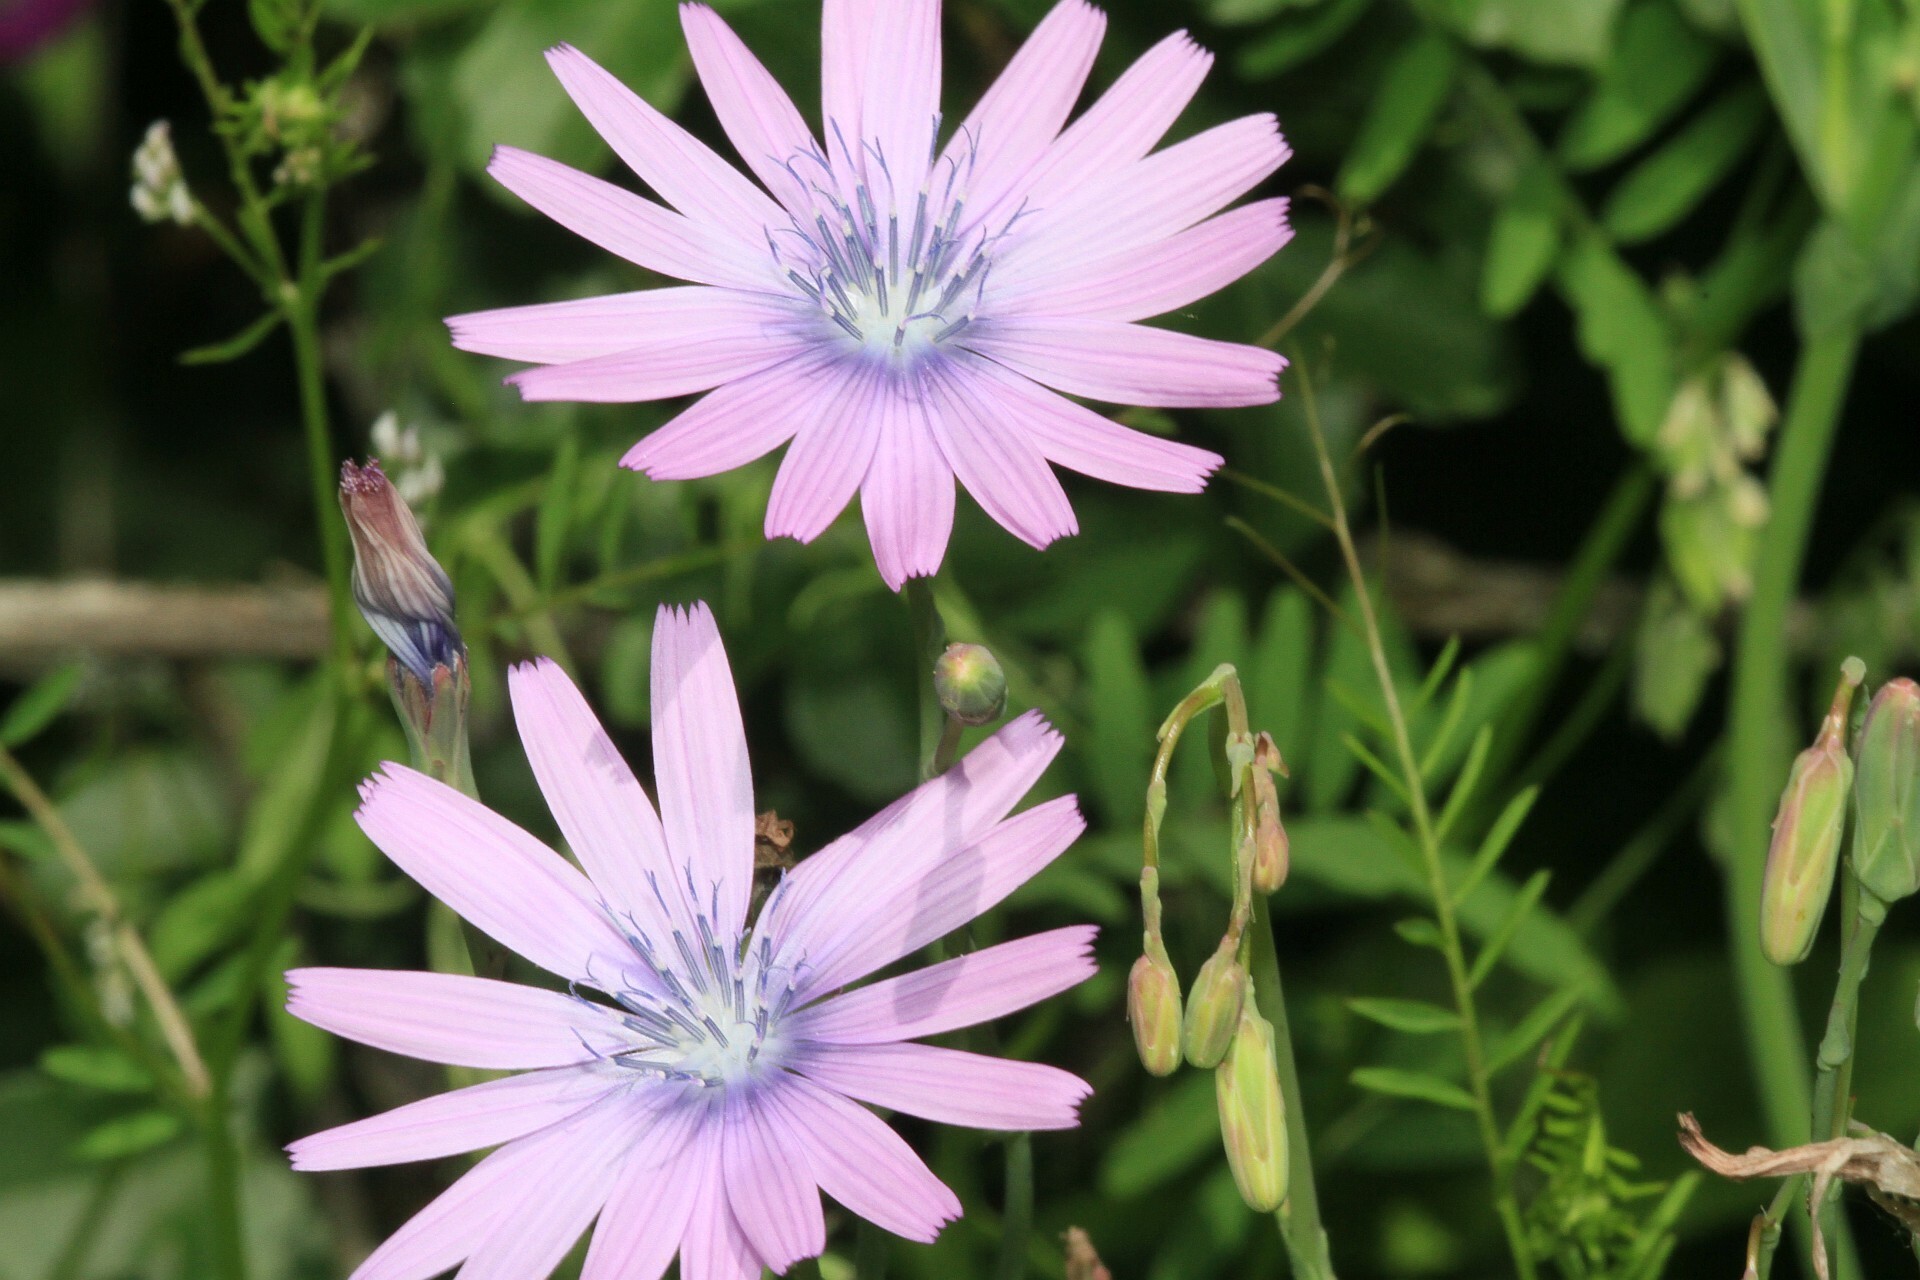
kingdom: Plantae
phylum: Tracheophyta
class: Magnoliopsida
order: Asterales
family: Asteraceae
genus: Lactuca
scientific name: Lactuca perennis
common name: Mountain lettuce
